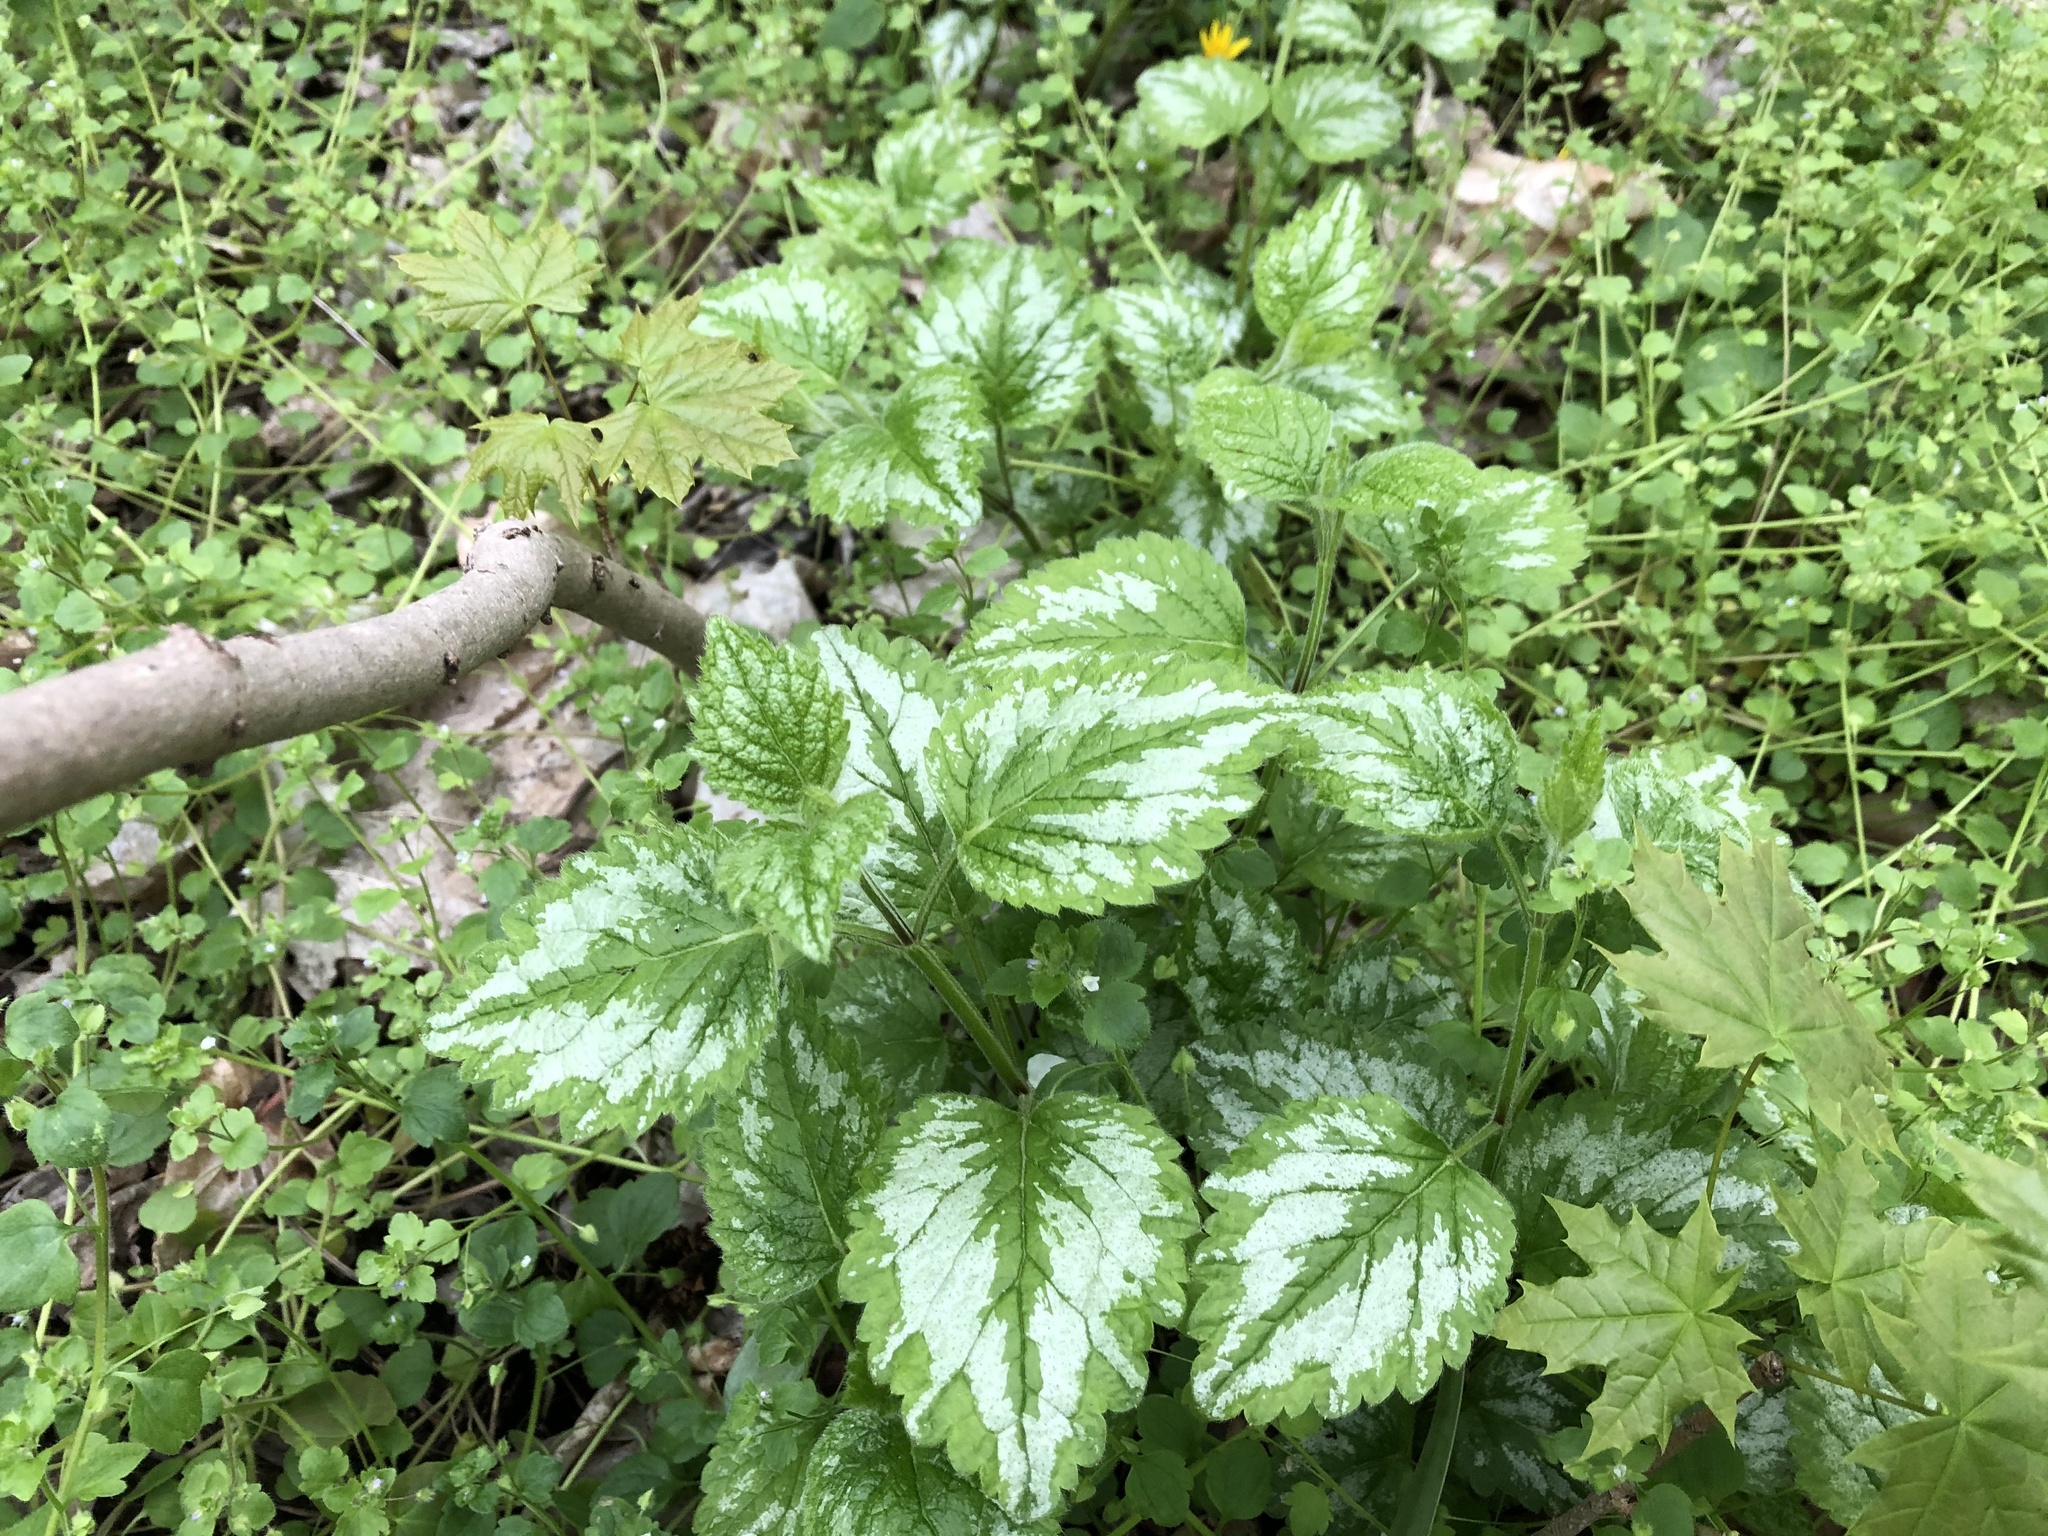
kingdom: Plantae
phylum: Tracheophyta
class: Magnoliopsida
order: Lamiales
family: Lamiaceae
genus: Lamium
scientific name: Lamium galeobdolon
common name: Yellow archangel
